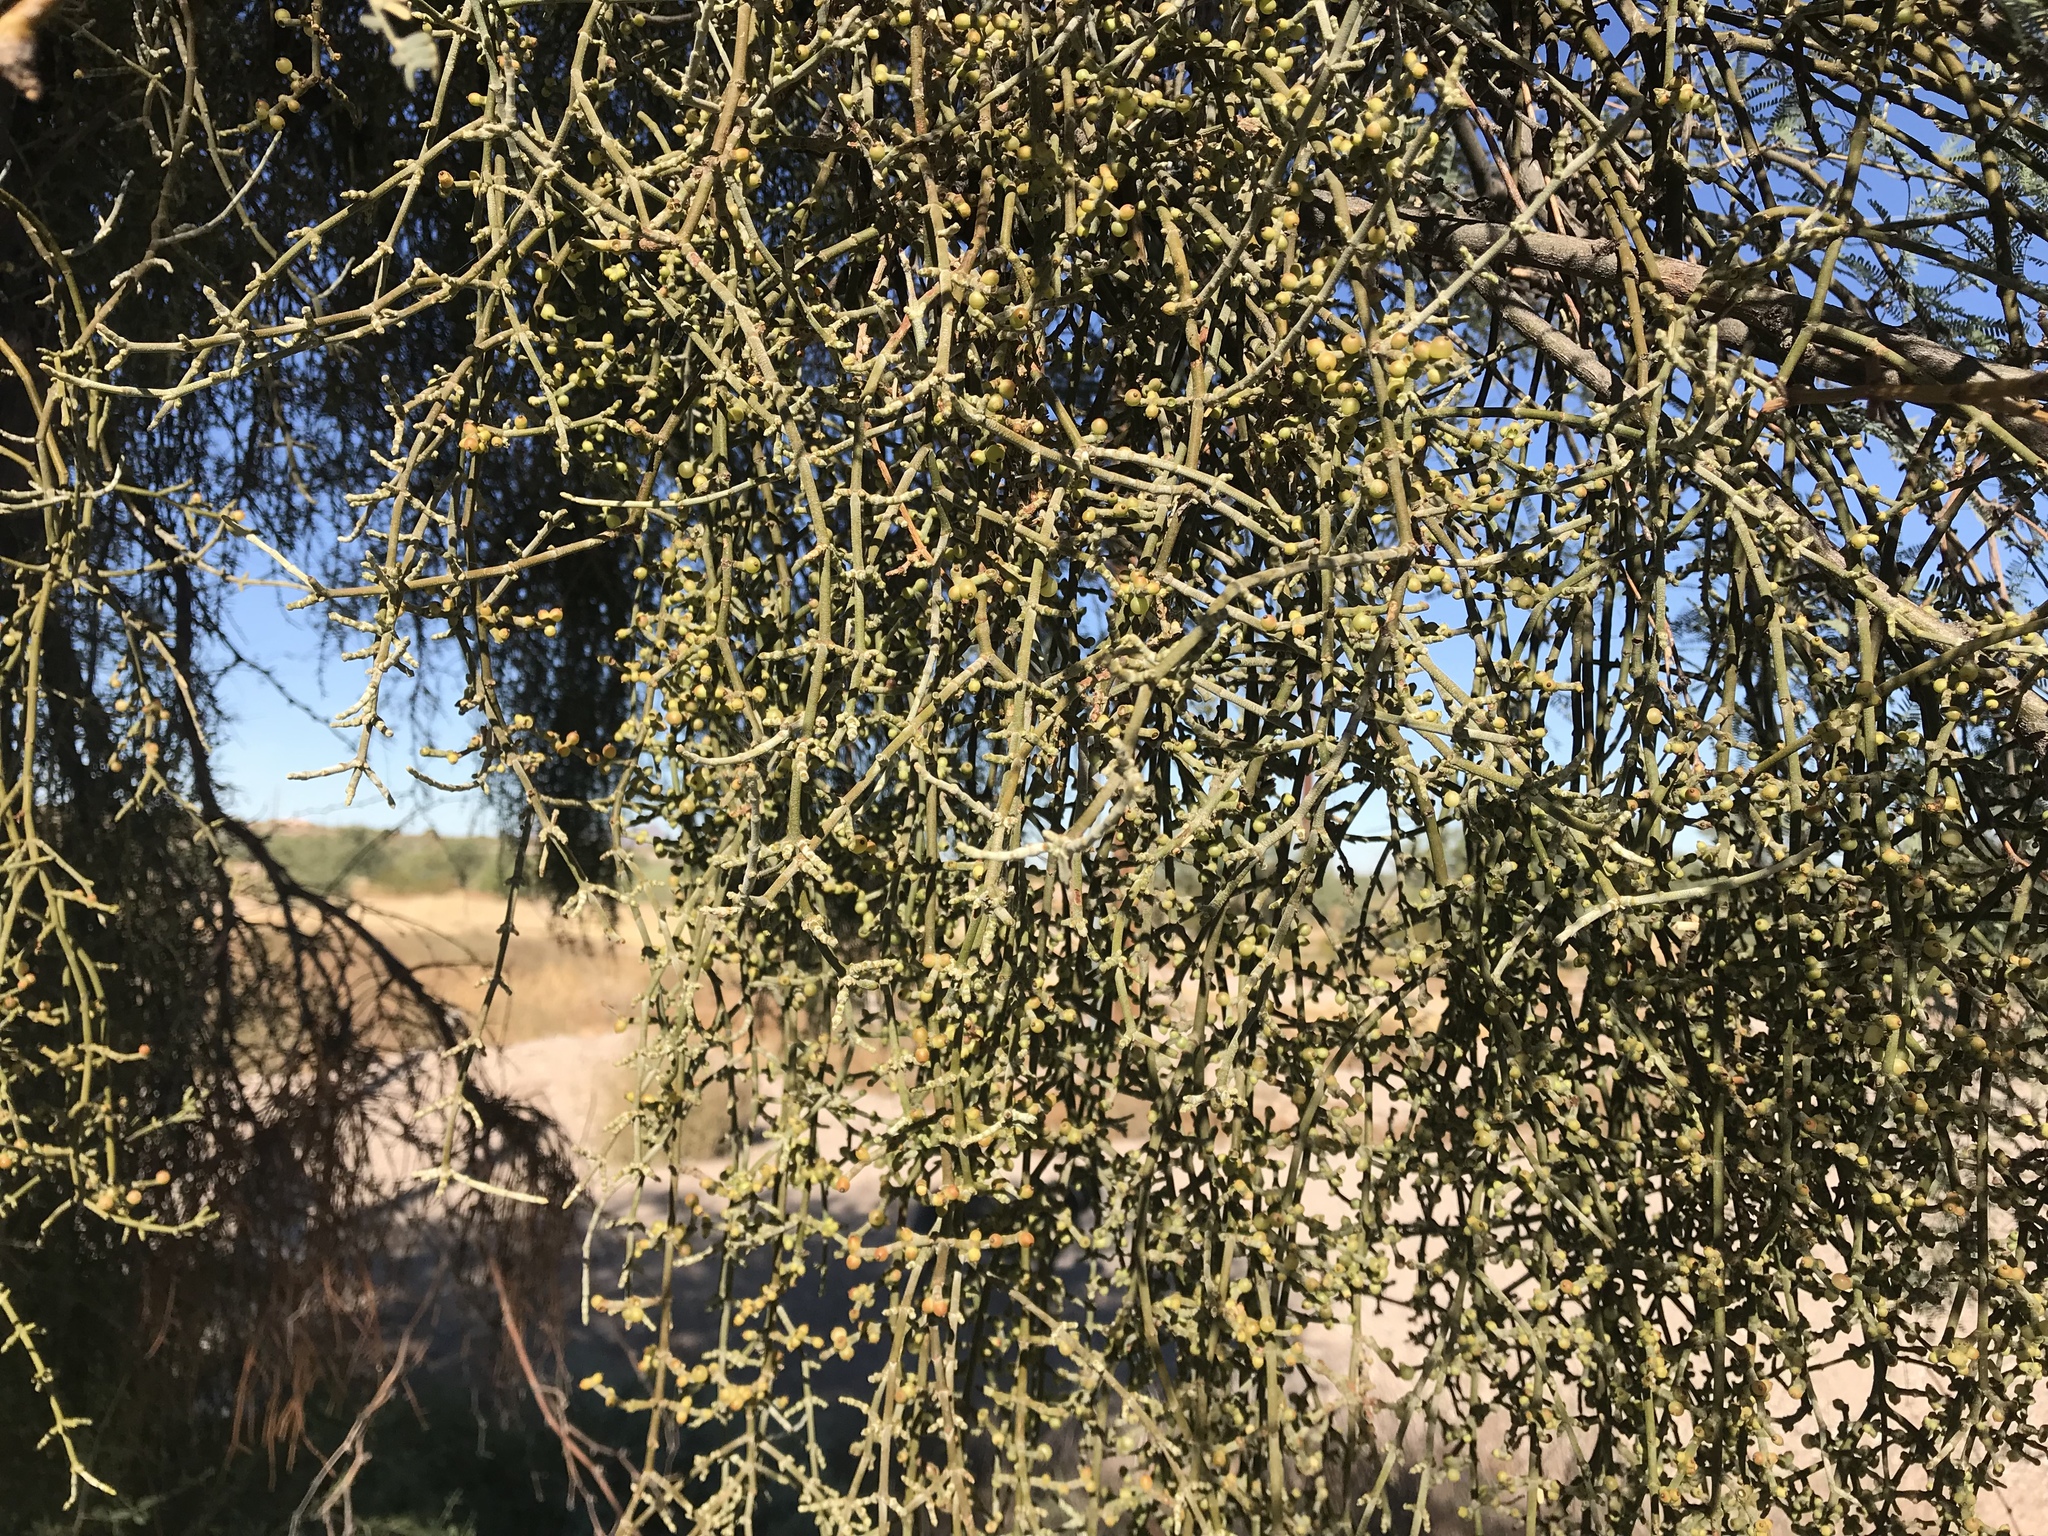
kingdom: Plantae
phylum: Tracheophyta
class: Magnoliopsida
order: Santalales
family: Viscaceae
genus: Phoradendron
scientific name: Phoradendron californicum
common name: Acacia mistletoe
